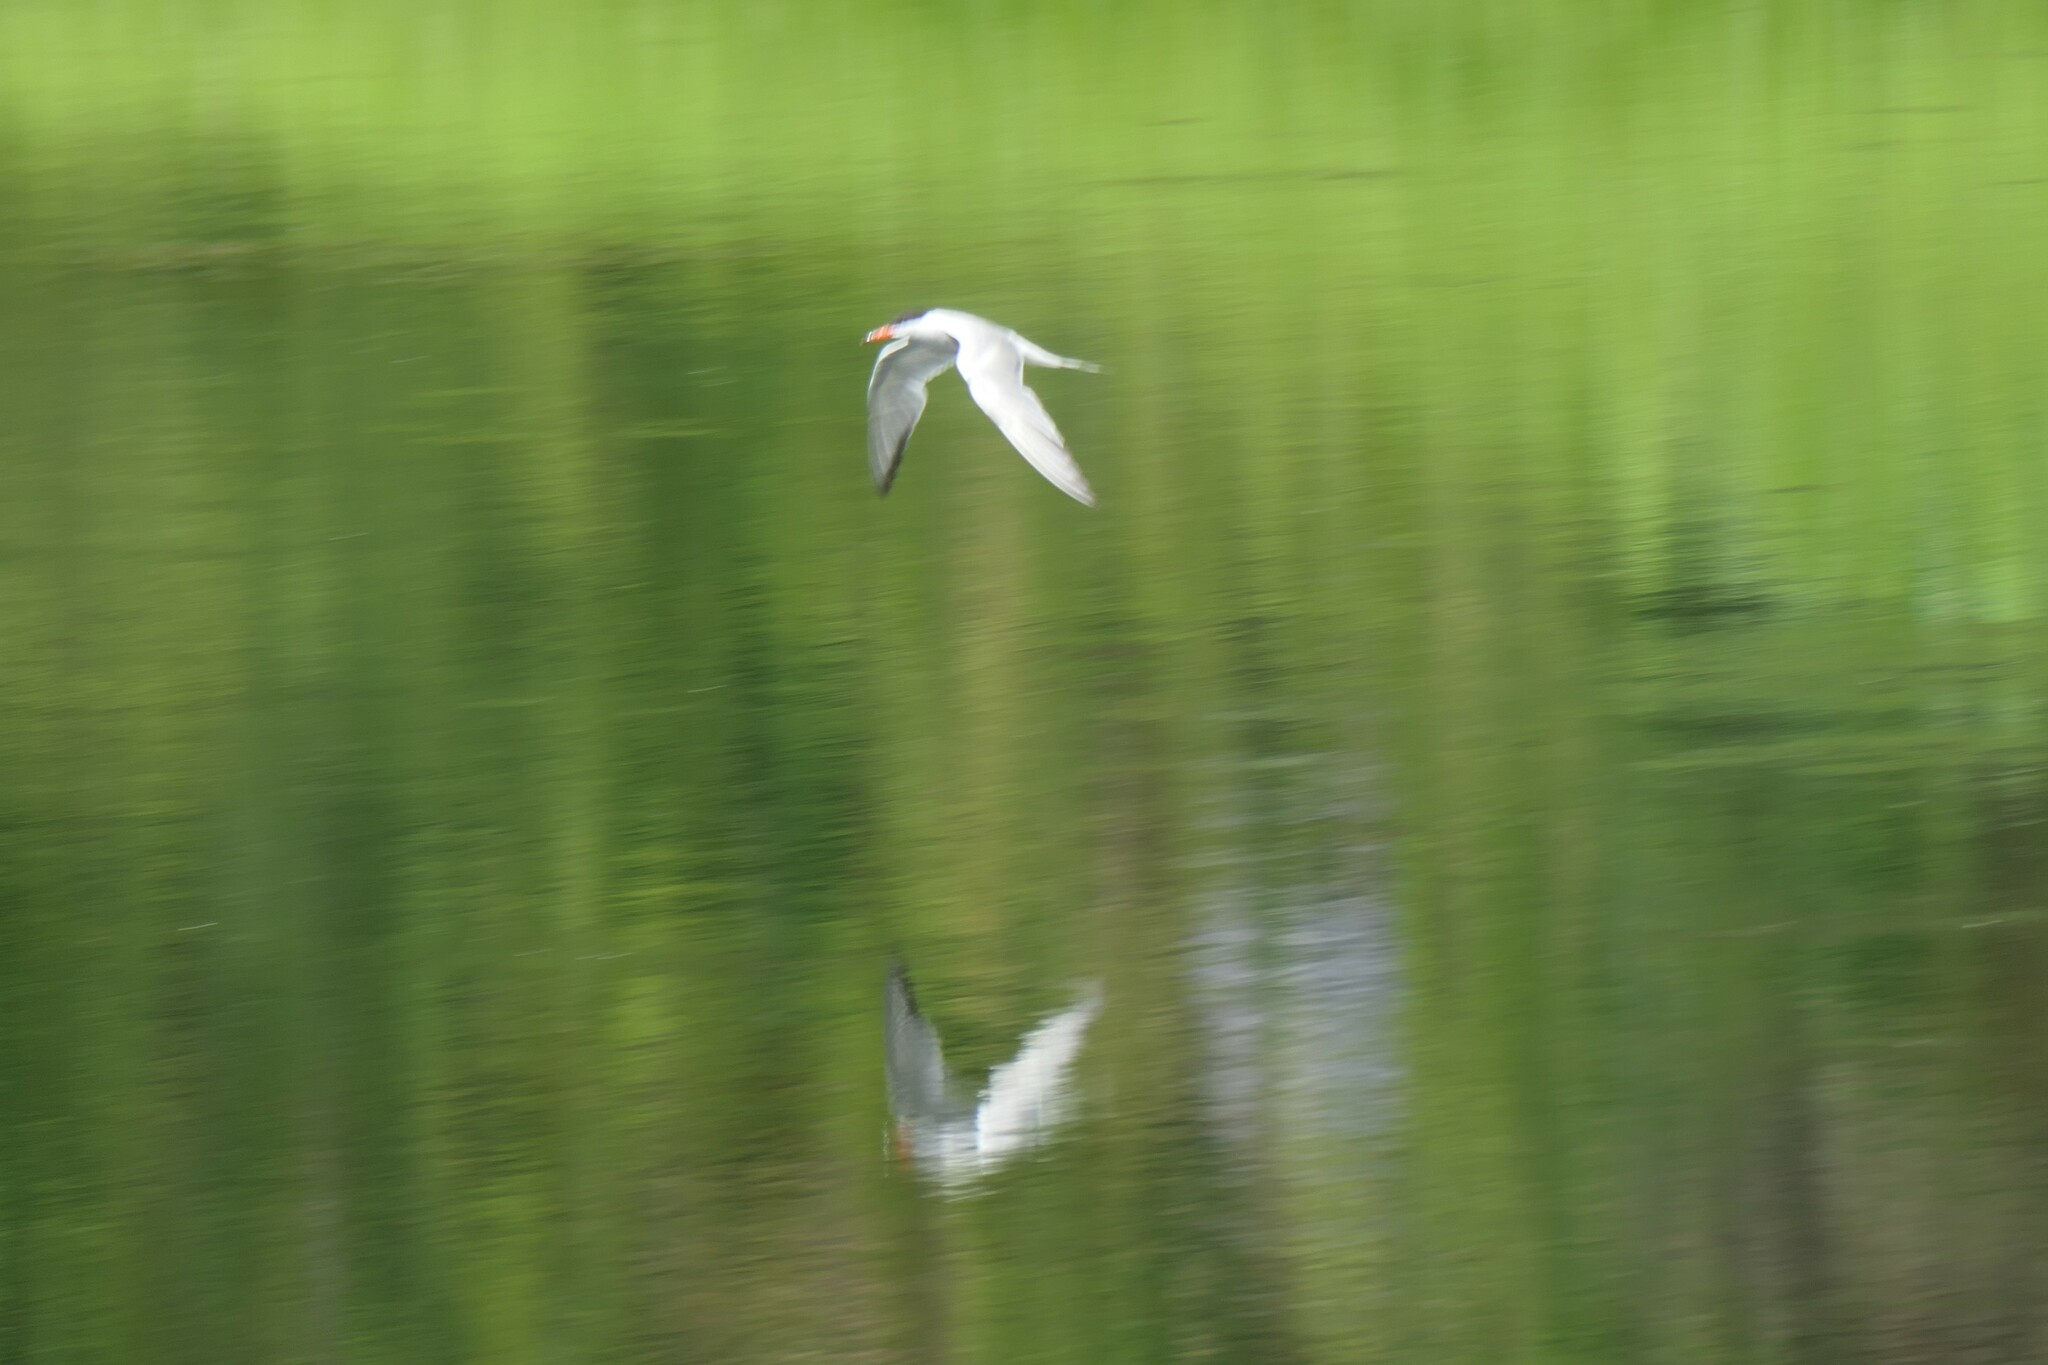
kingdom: Animalia
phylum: Chordata
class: Aves
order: Charadriiformes
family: Laridae
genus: Sterna
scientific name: Sterna hirundo
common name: Common tern
